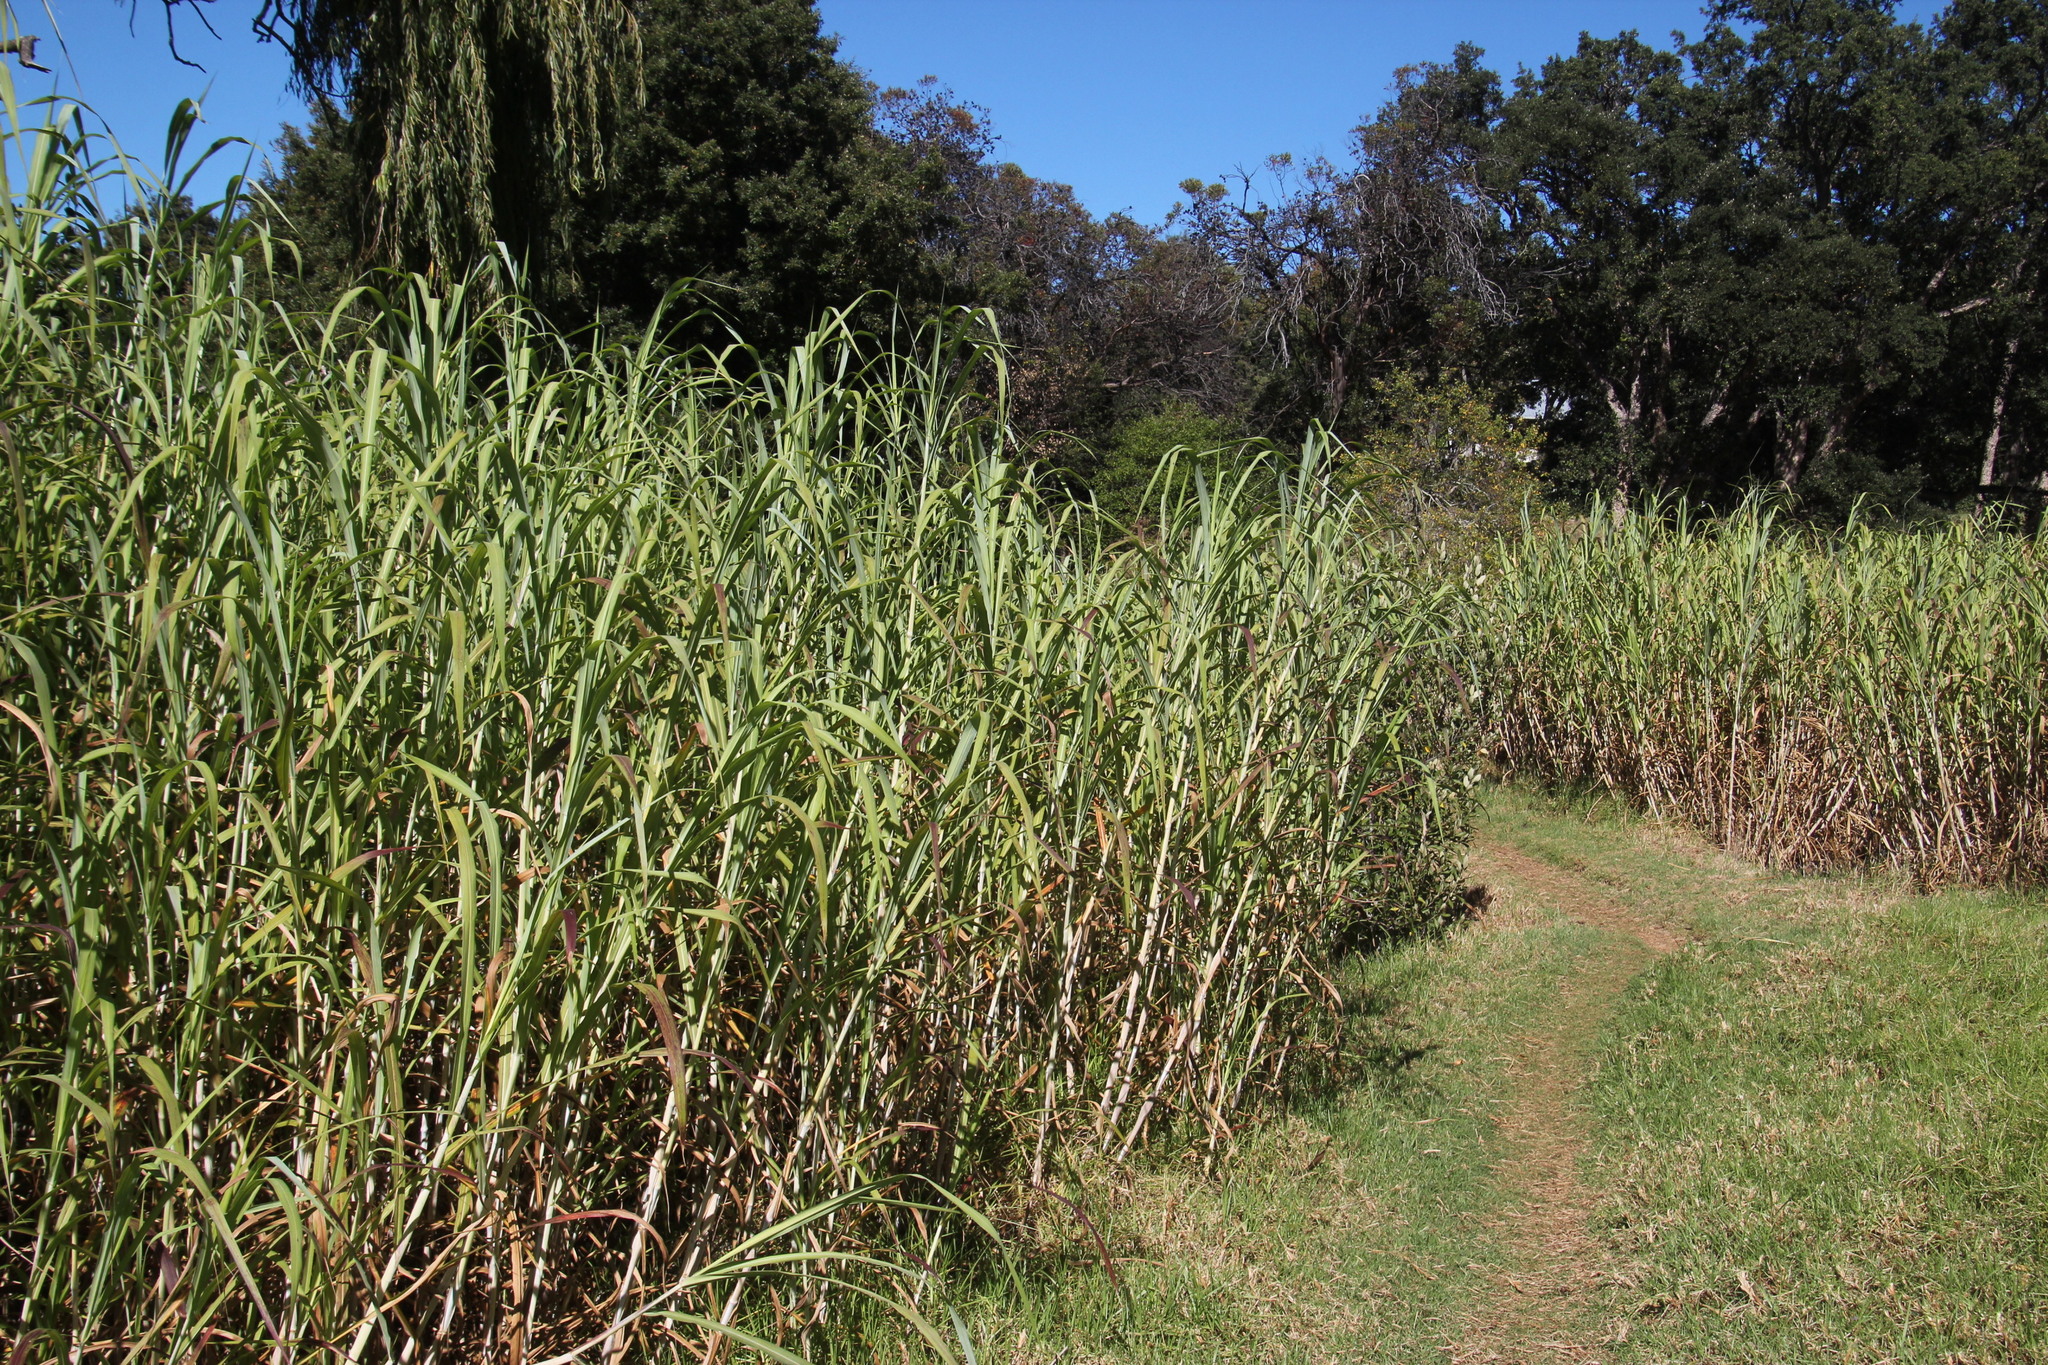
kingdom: Plantae
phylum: Tracheophyta
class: Liliopsida
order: Poales
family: Poaceae
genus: Phragmites
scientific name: Phragmites australis
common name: Common reed
